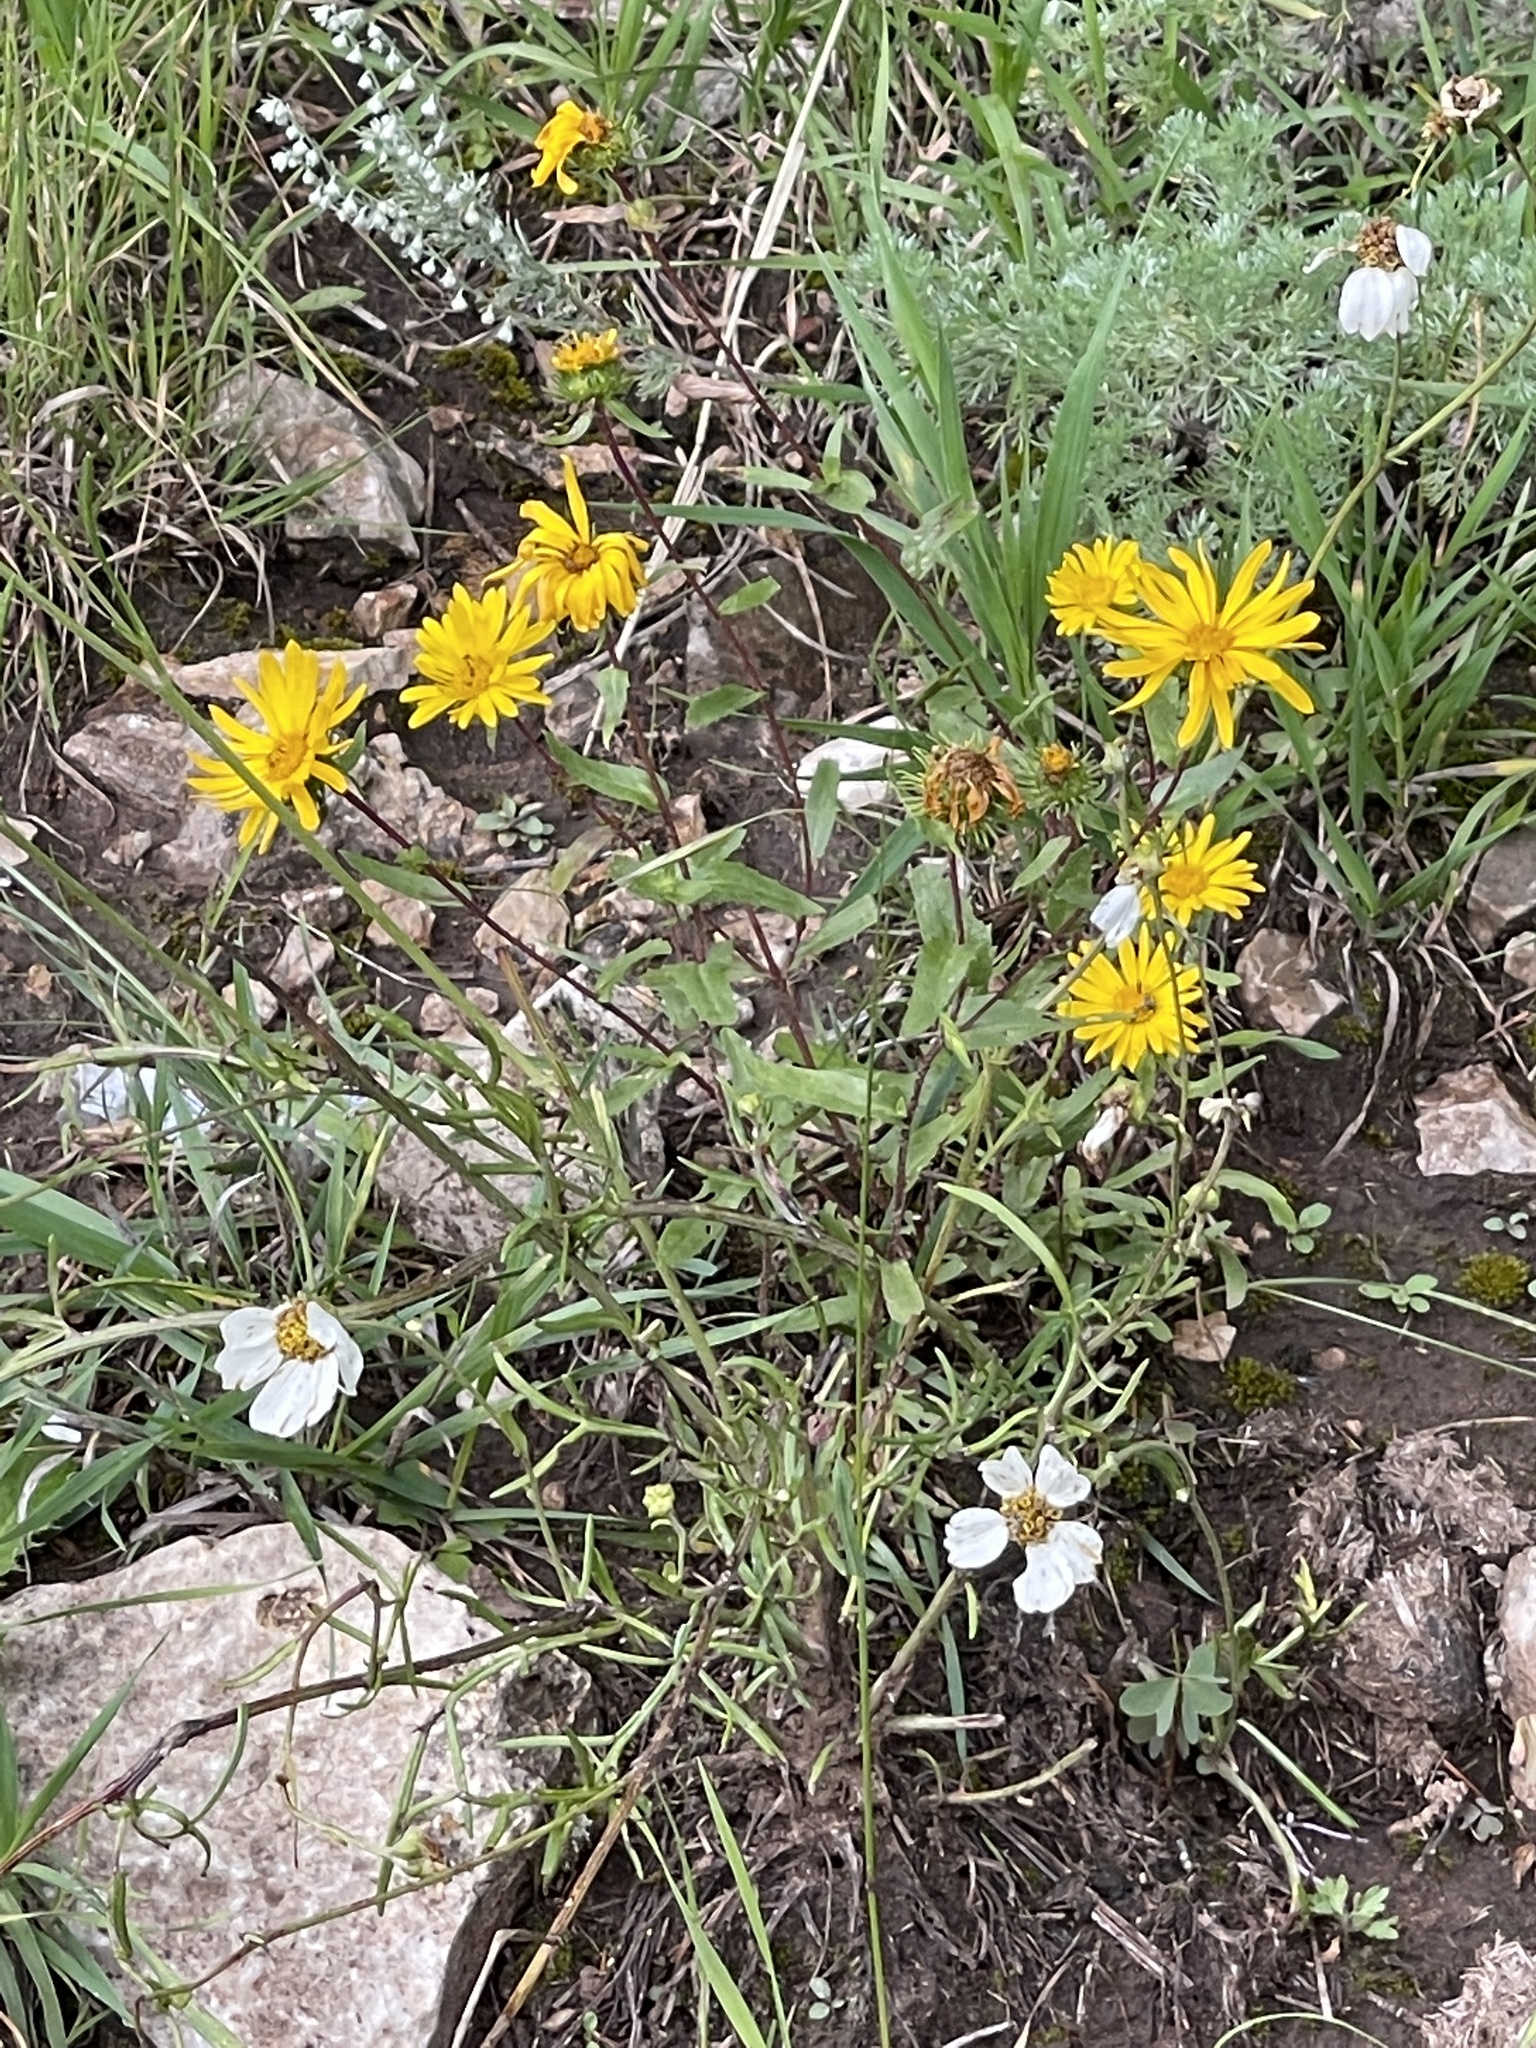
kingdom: Plantae
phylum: Tracheophyta
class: Magnoliopsida
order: Asterales
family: Asteraceae
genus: Grindelia
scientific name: Grindelia scabra
